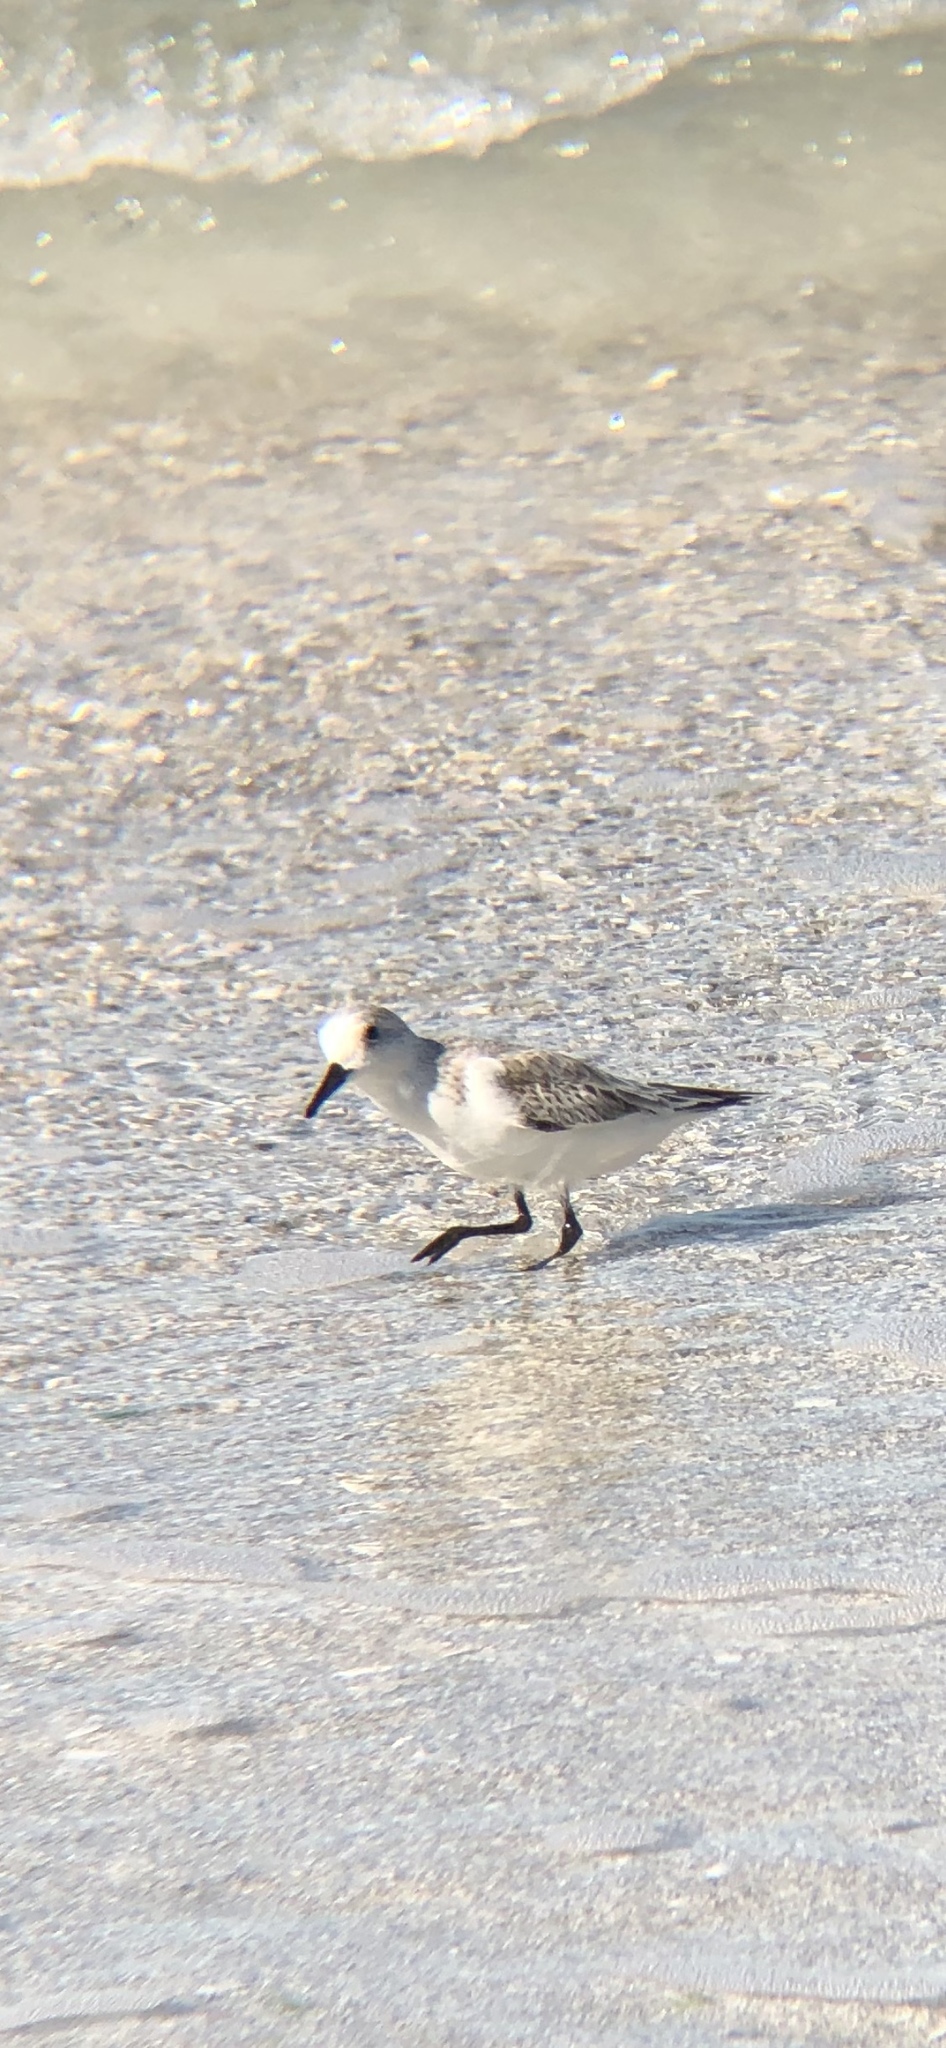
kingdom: Animalia
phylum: Chordata
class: Aves
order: Charadriiformes
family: Scolopacidae
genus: Calidris
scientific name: Calidris alba
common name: Sanderling
